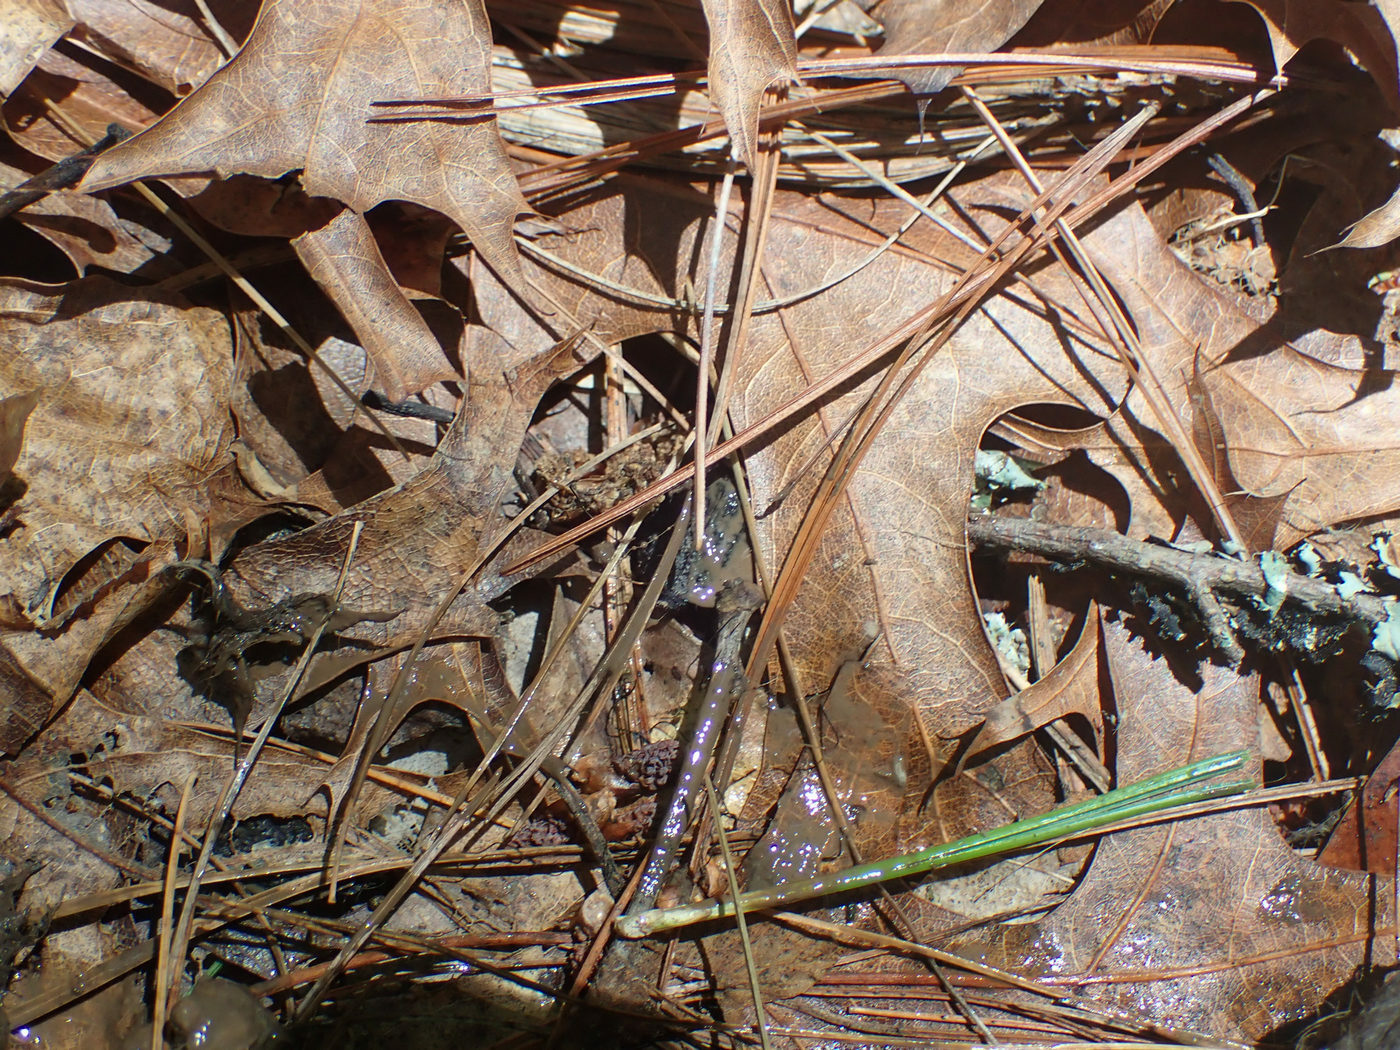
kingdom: Animalia
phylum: Arthropoda
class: Insecta
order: Coleoptera
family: Staphylinidae
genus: Necrophila
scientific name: Necrophila americana
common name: American carrion beetle
